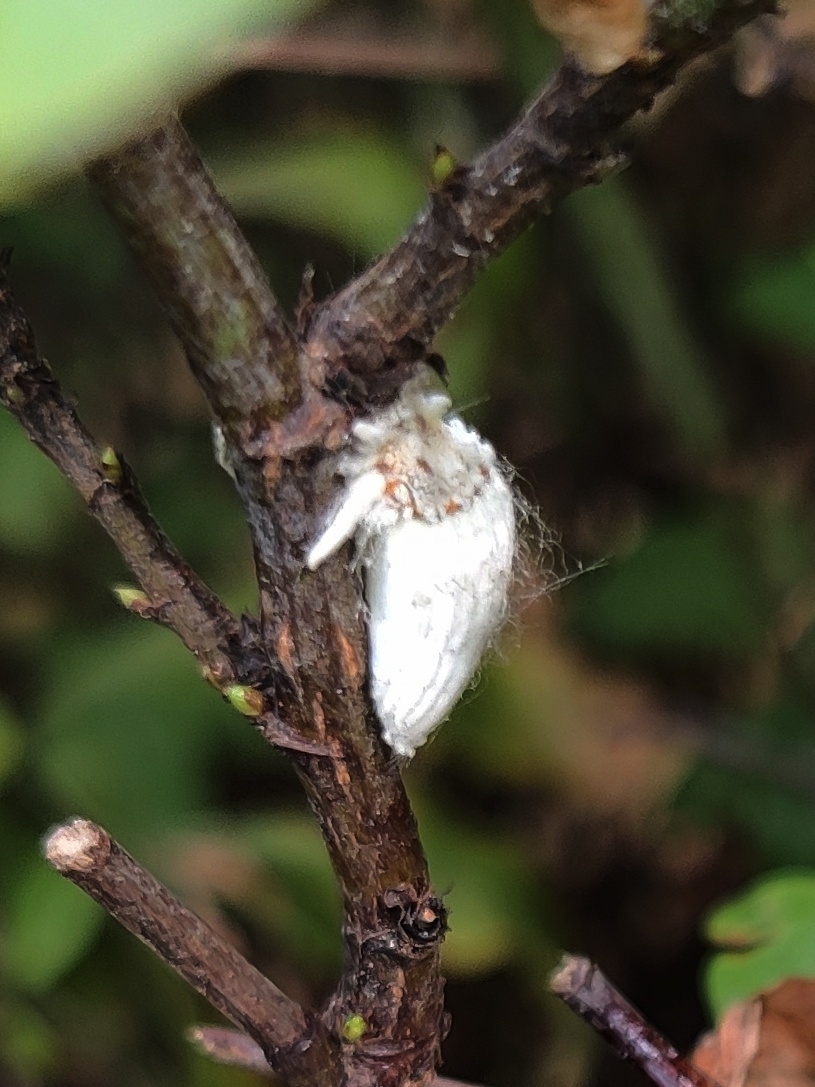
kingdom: Animalia
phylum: Arthropoda
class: Insecta
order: Hemiptera
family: Margarodidae
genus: Icerya
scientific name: Icerya purchasi
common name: Cottony cushion scale
